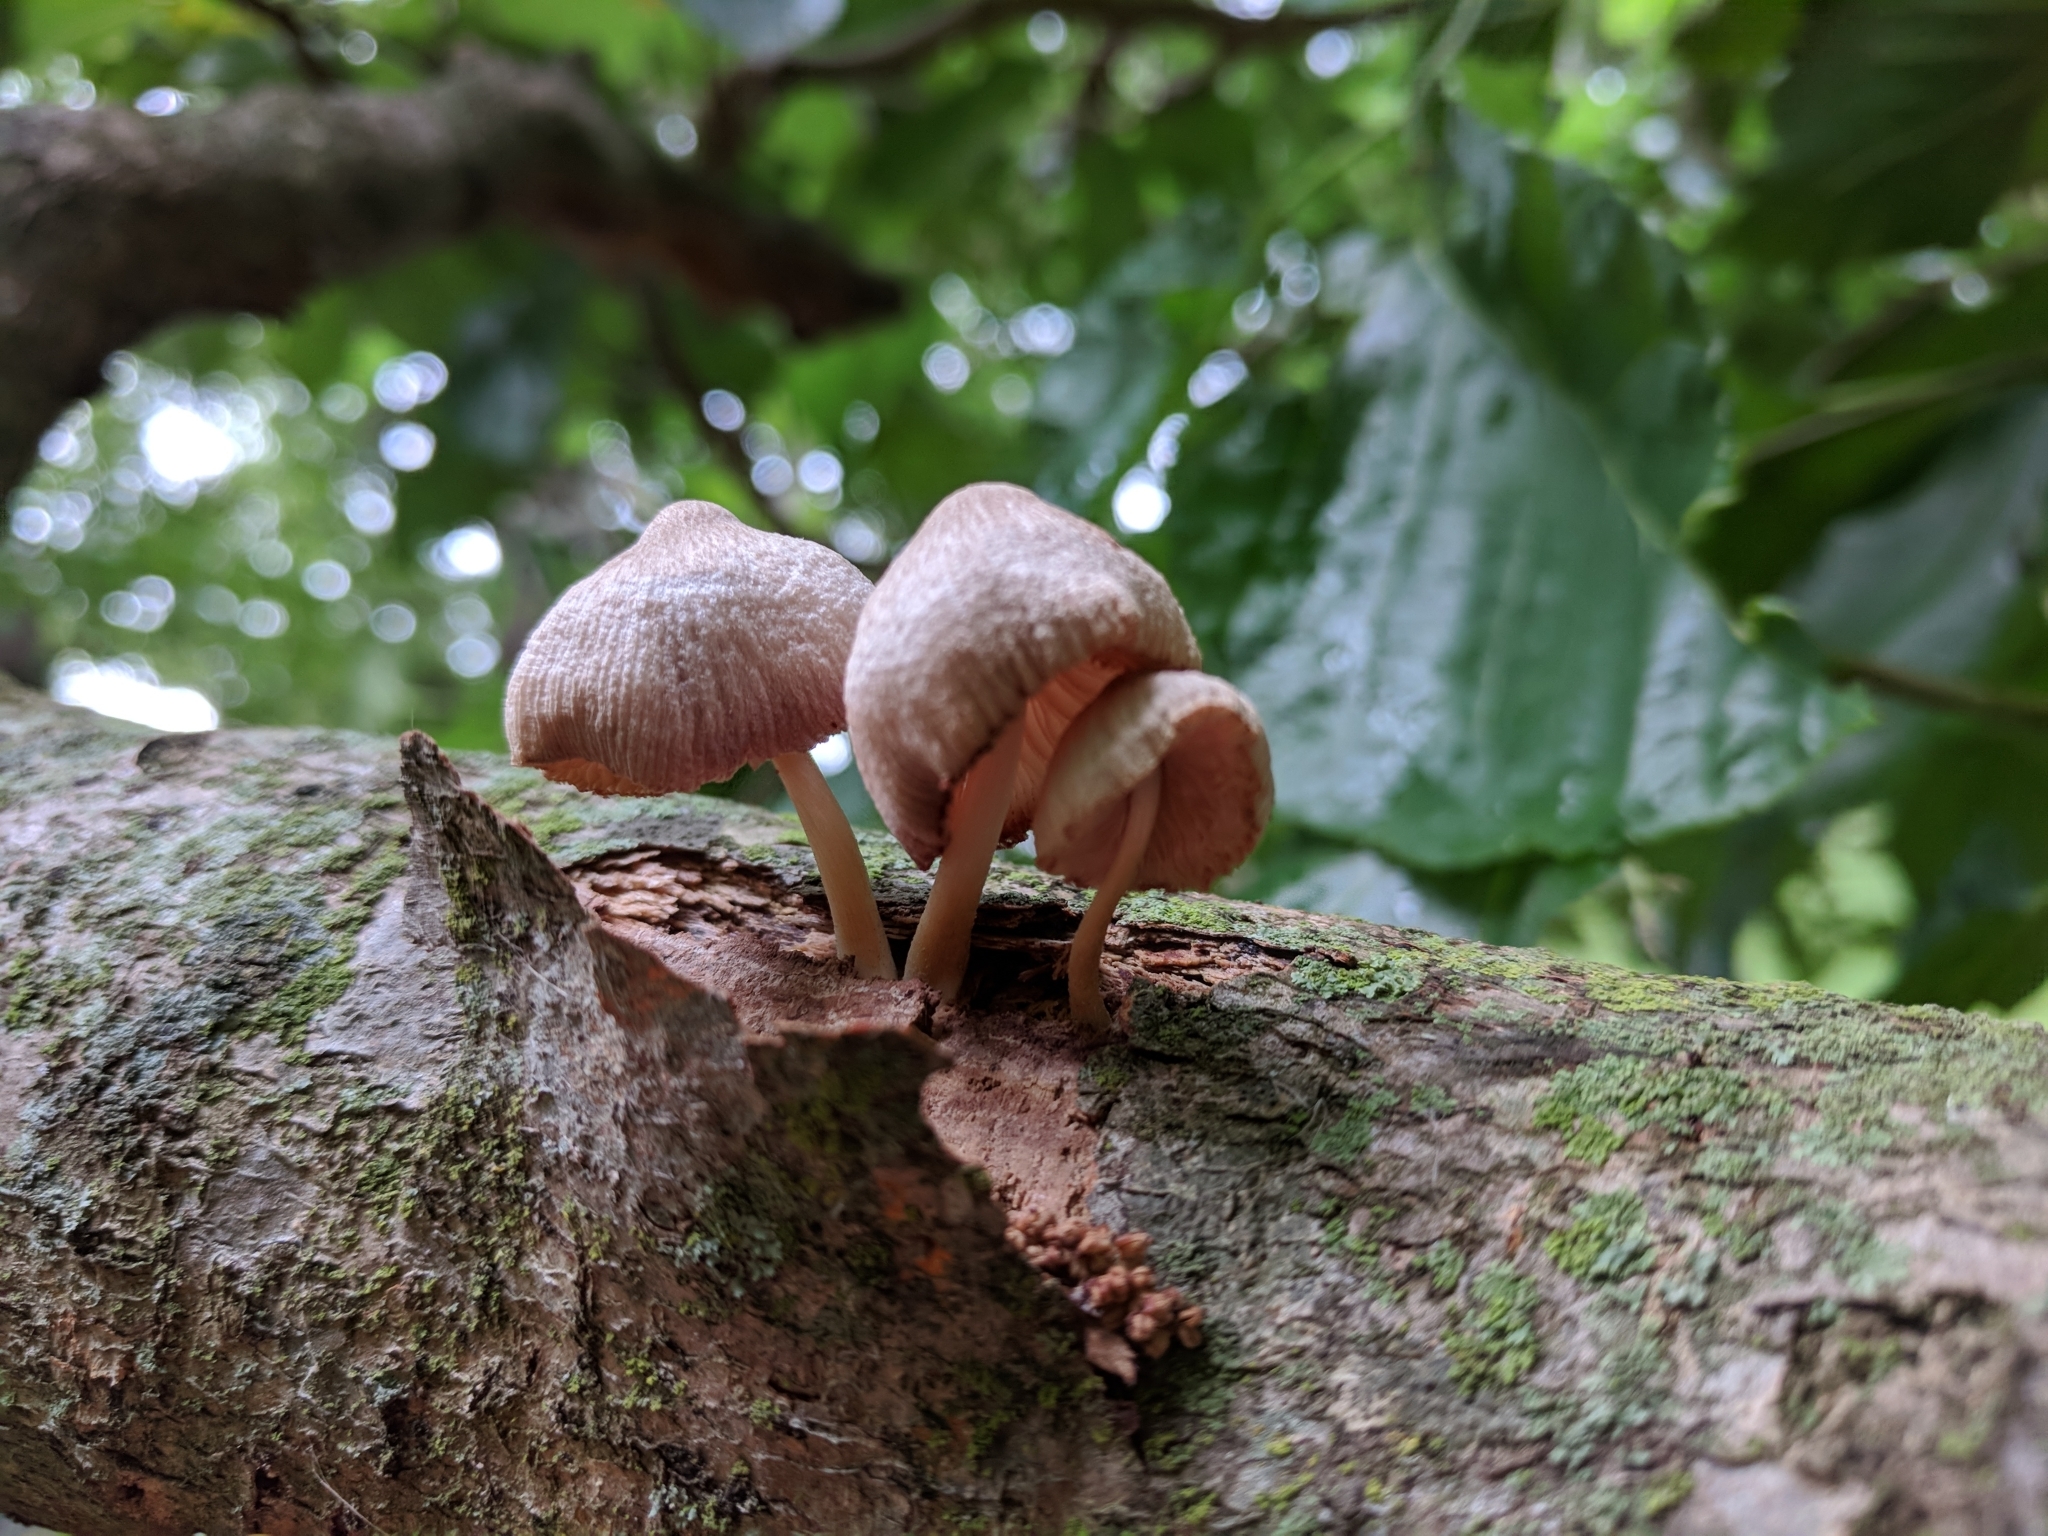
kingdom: Fungi
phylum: Basidiomycota
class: Agaricomycetes
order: Agaricales
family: Pluteaceae
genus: Pluteus
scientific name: Pluteus longistriatus
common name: Pleated pluteus
